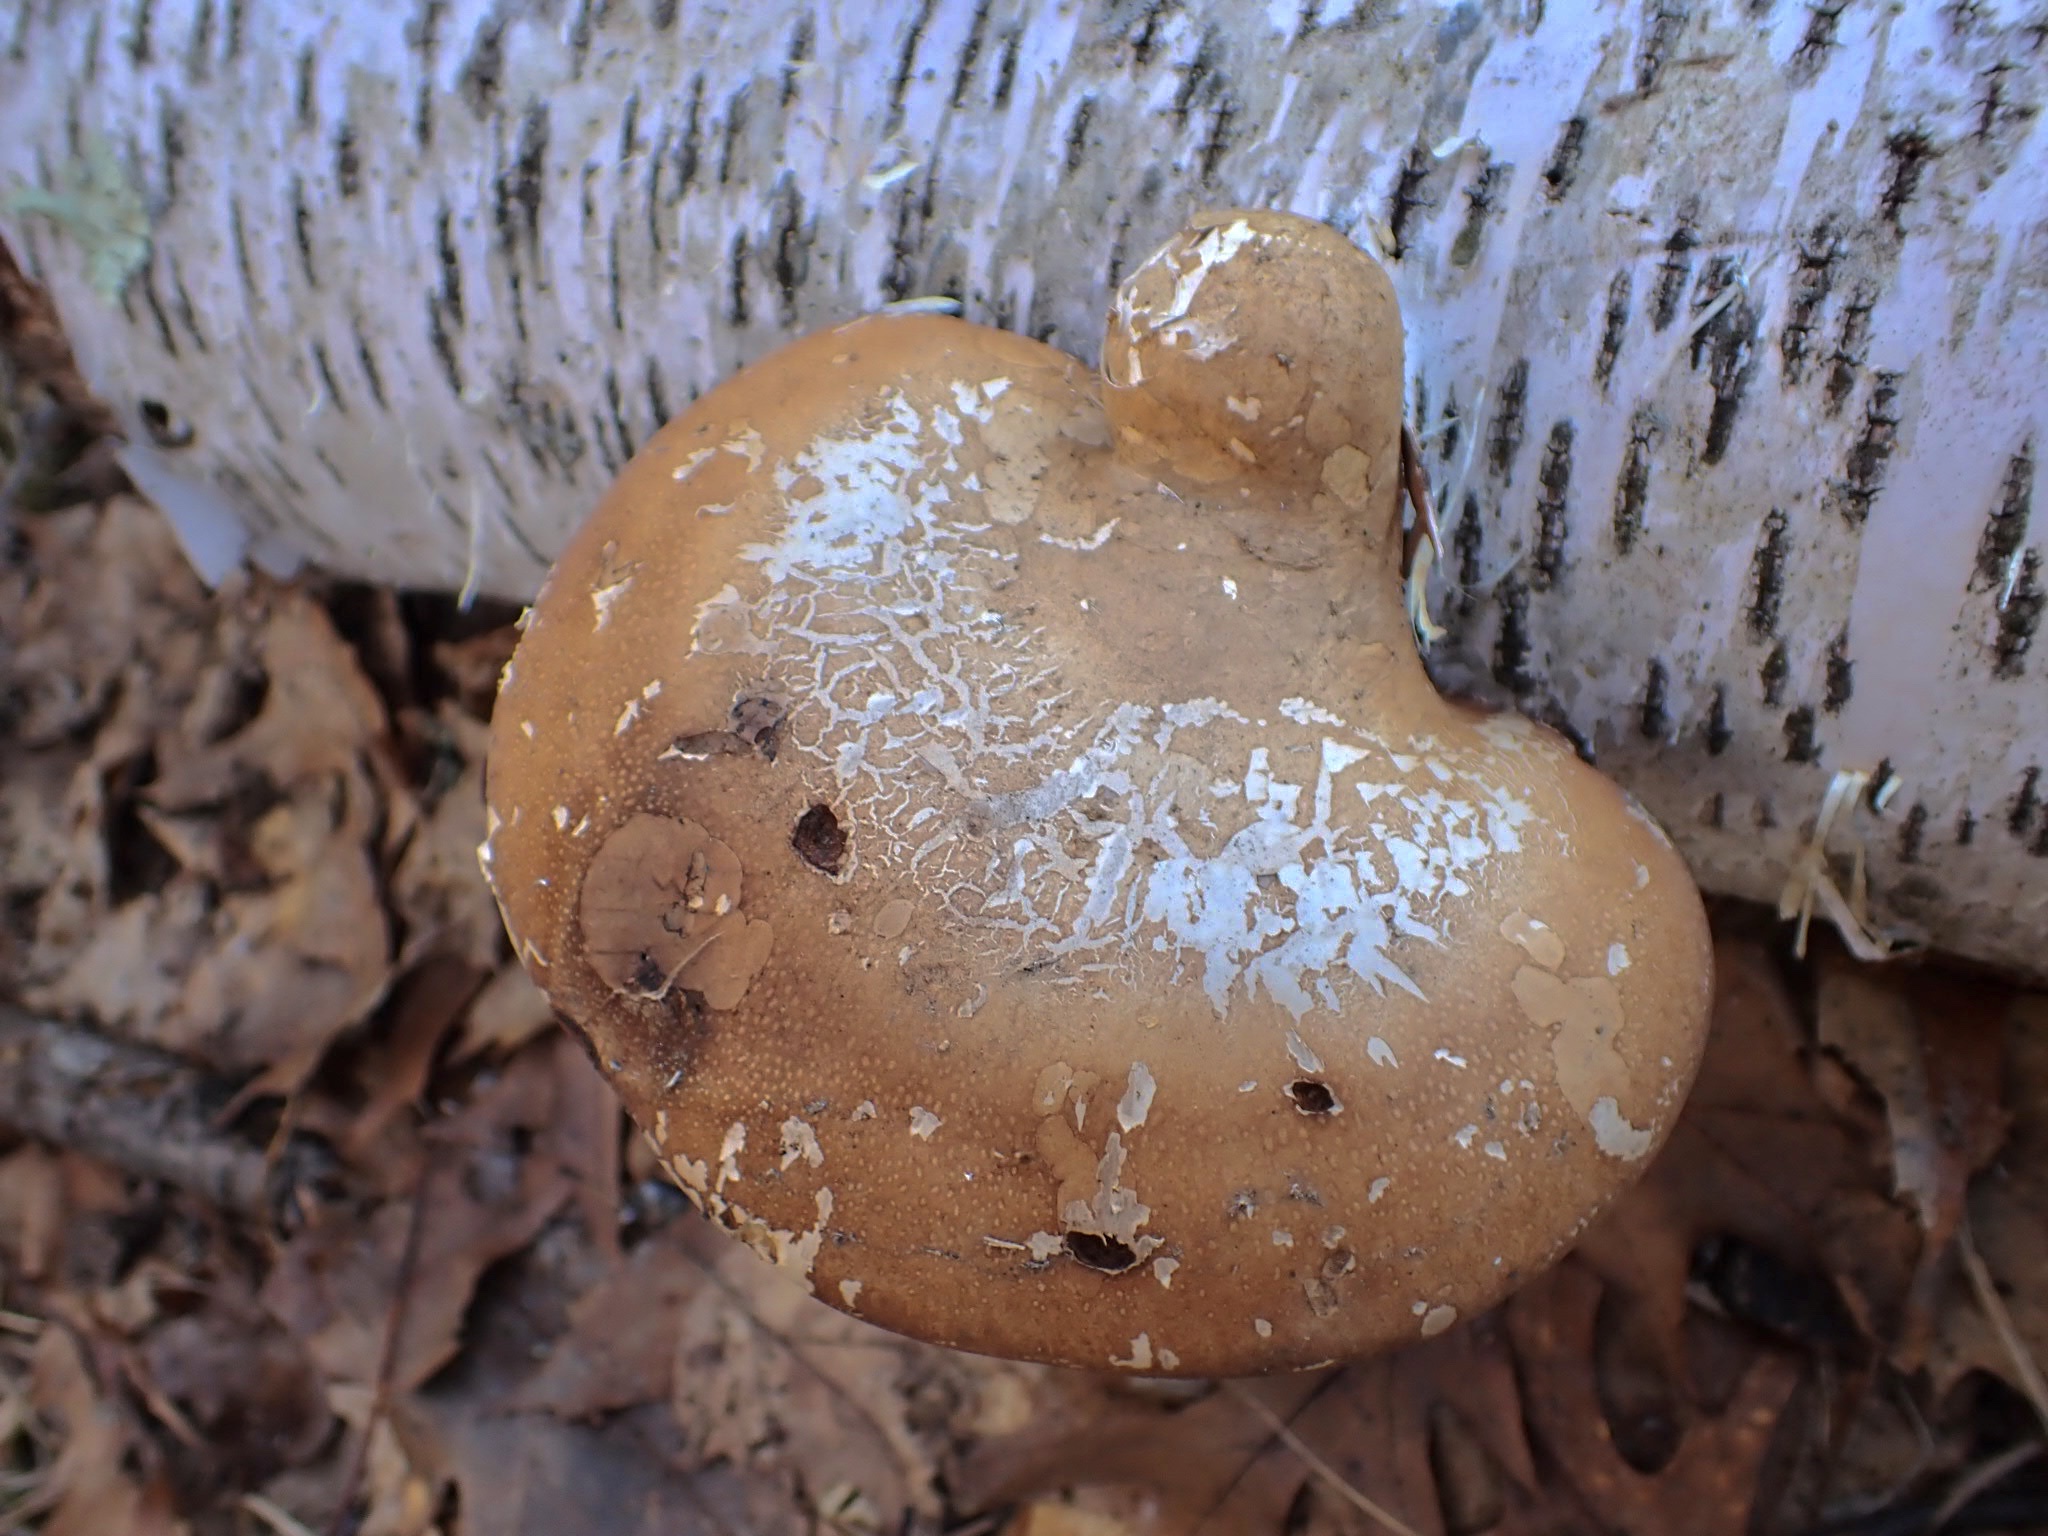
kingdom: Fungi
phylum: Basidiomycota
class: Agaricomycetes
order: Polyporales
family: Fomitopsidaceae
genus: Fomitopsis
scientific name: Fomitopsis betulina
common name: Birch polypore
